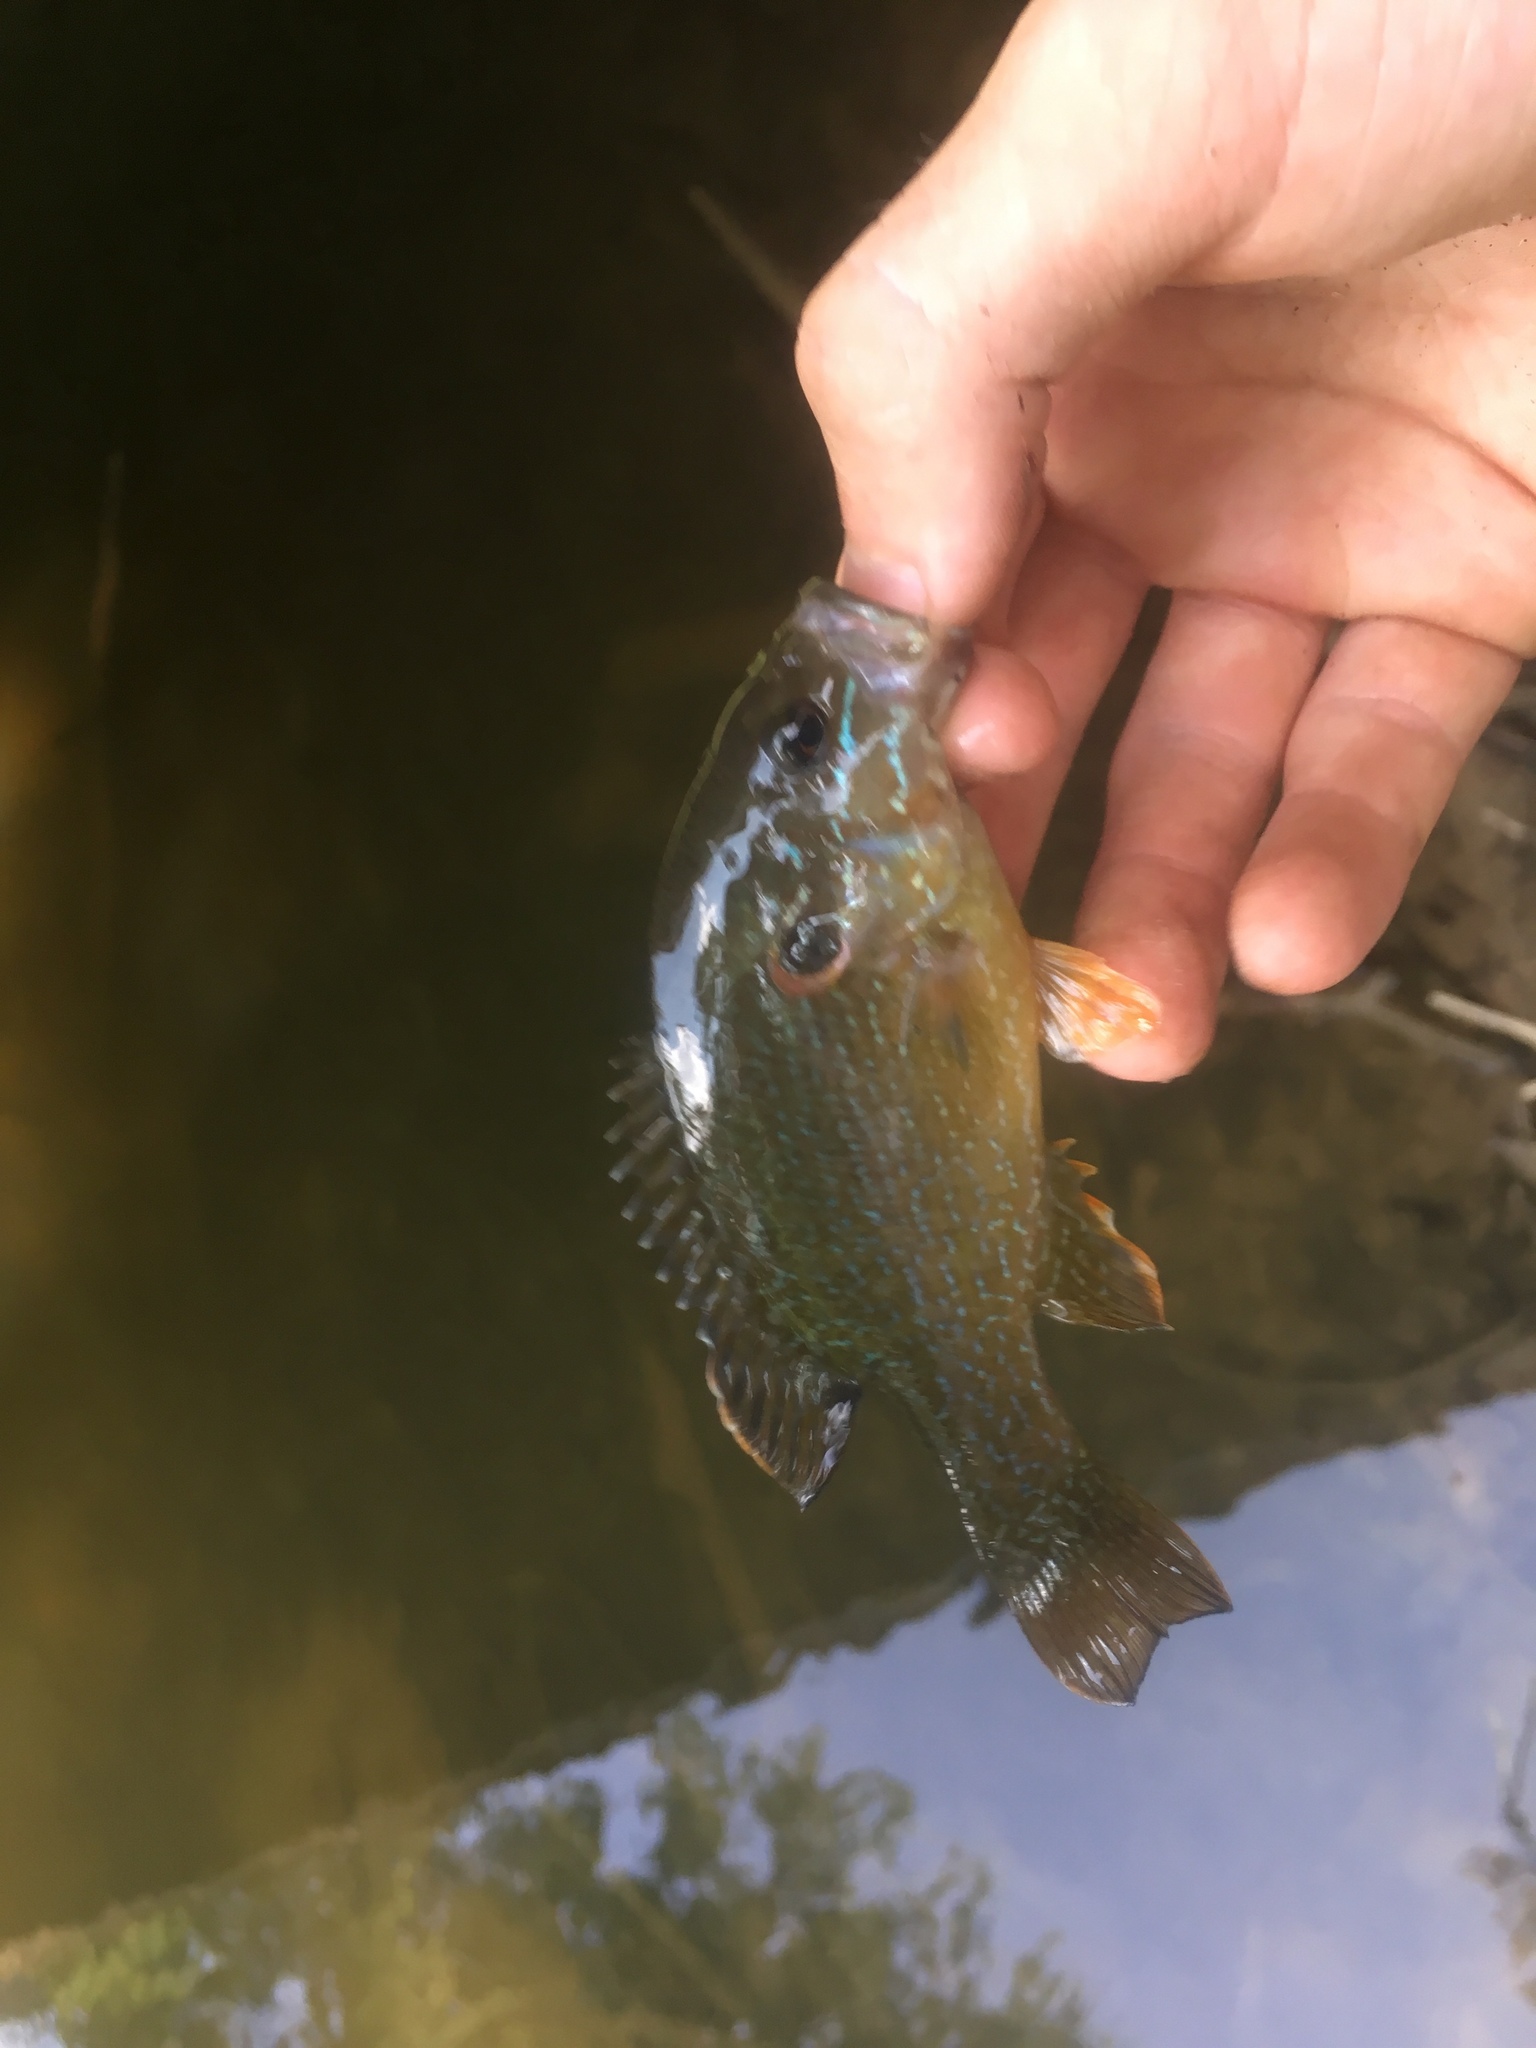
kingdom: Animalia
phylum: Chordata
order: Perciformes
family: Centrarchidae
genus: Lepomis
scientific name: Lepomis cyanellus
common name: Green sunfish
